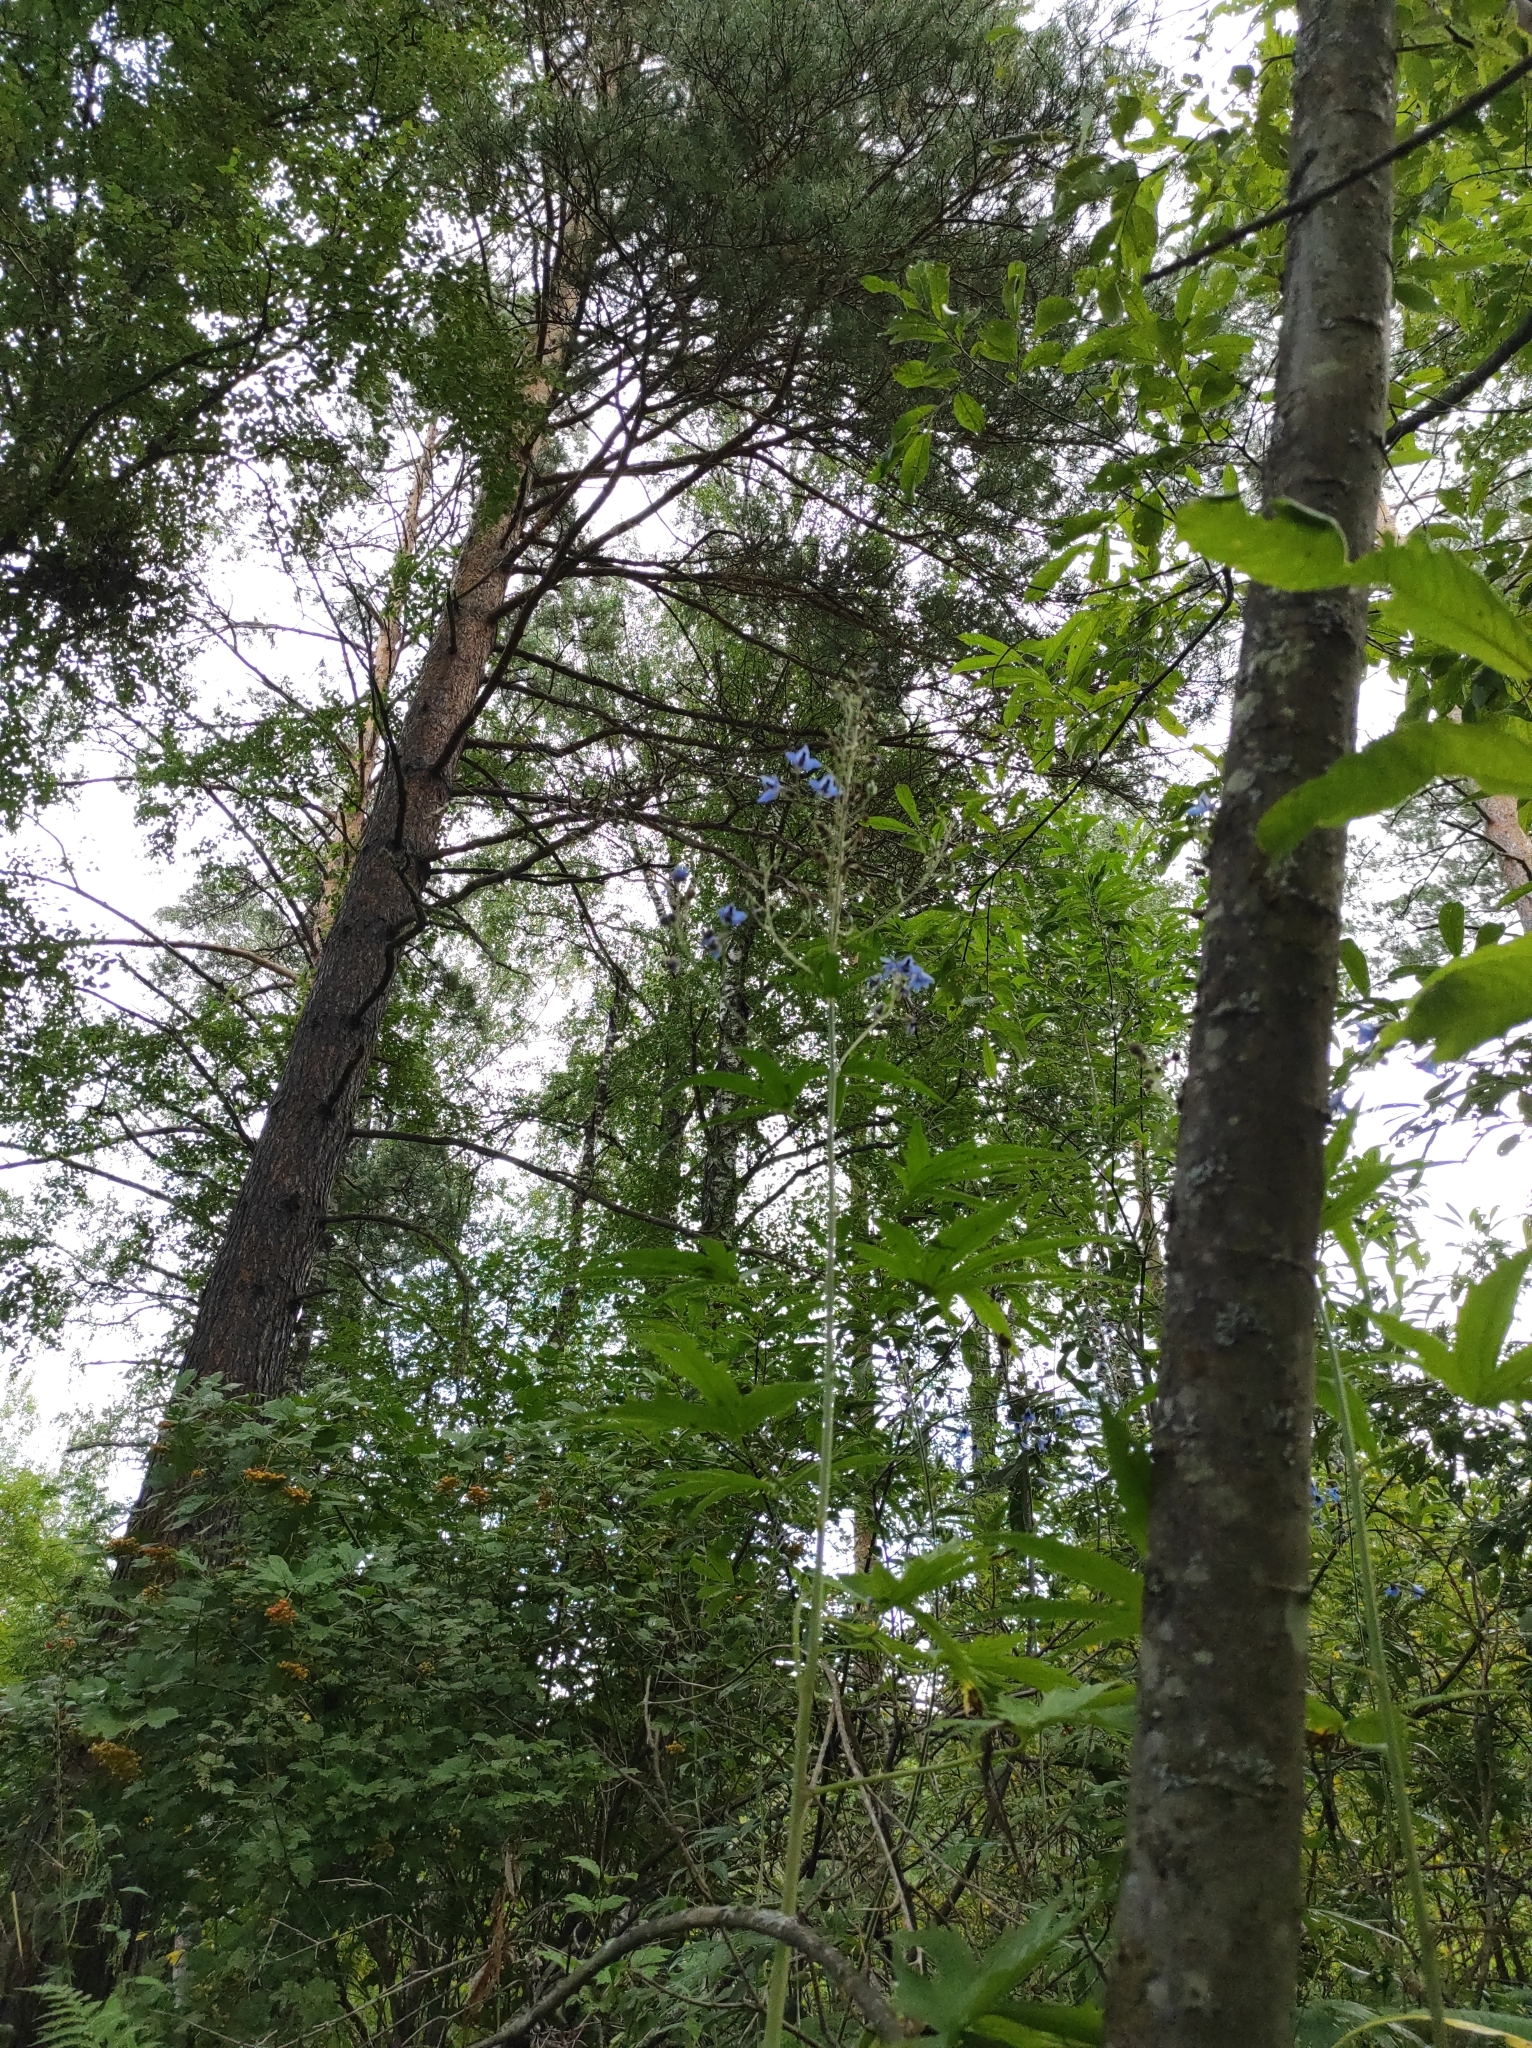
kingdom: Plantae
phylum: Tracheophyta
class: Magnoliopsida
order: Ranunculales
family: Ranunculaceae
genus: Delphinium
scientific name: Delphinium elatum
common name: Candle larkspur
